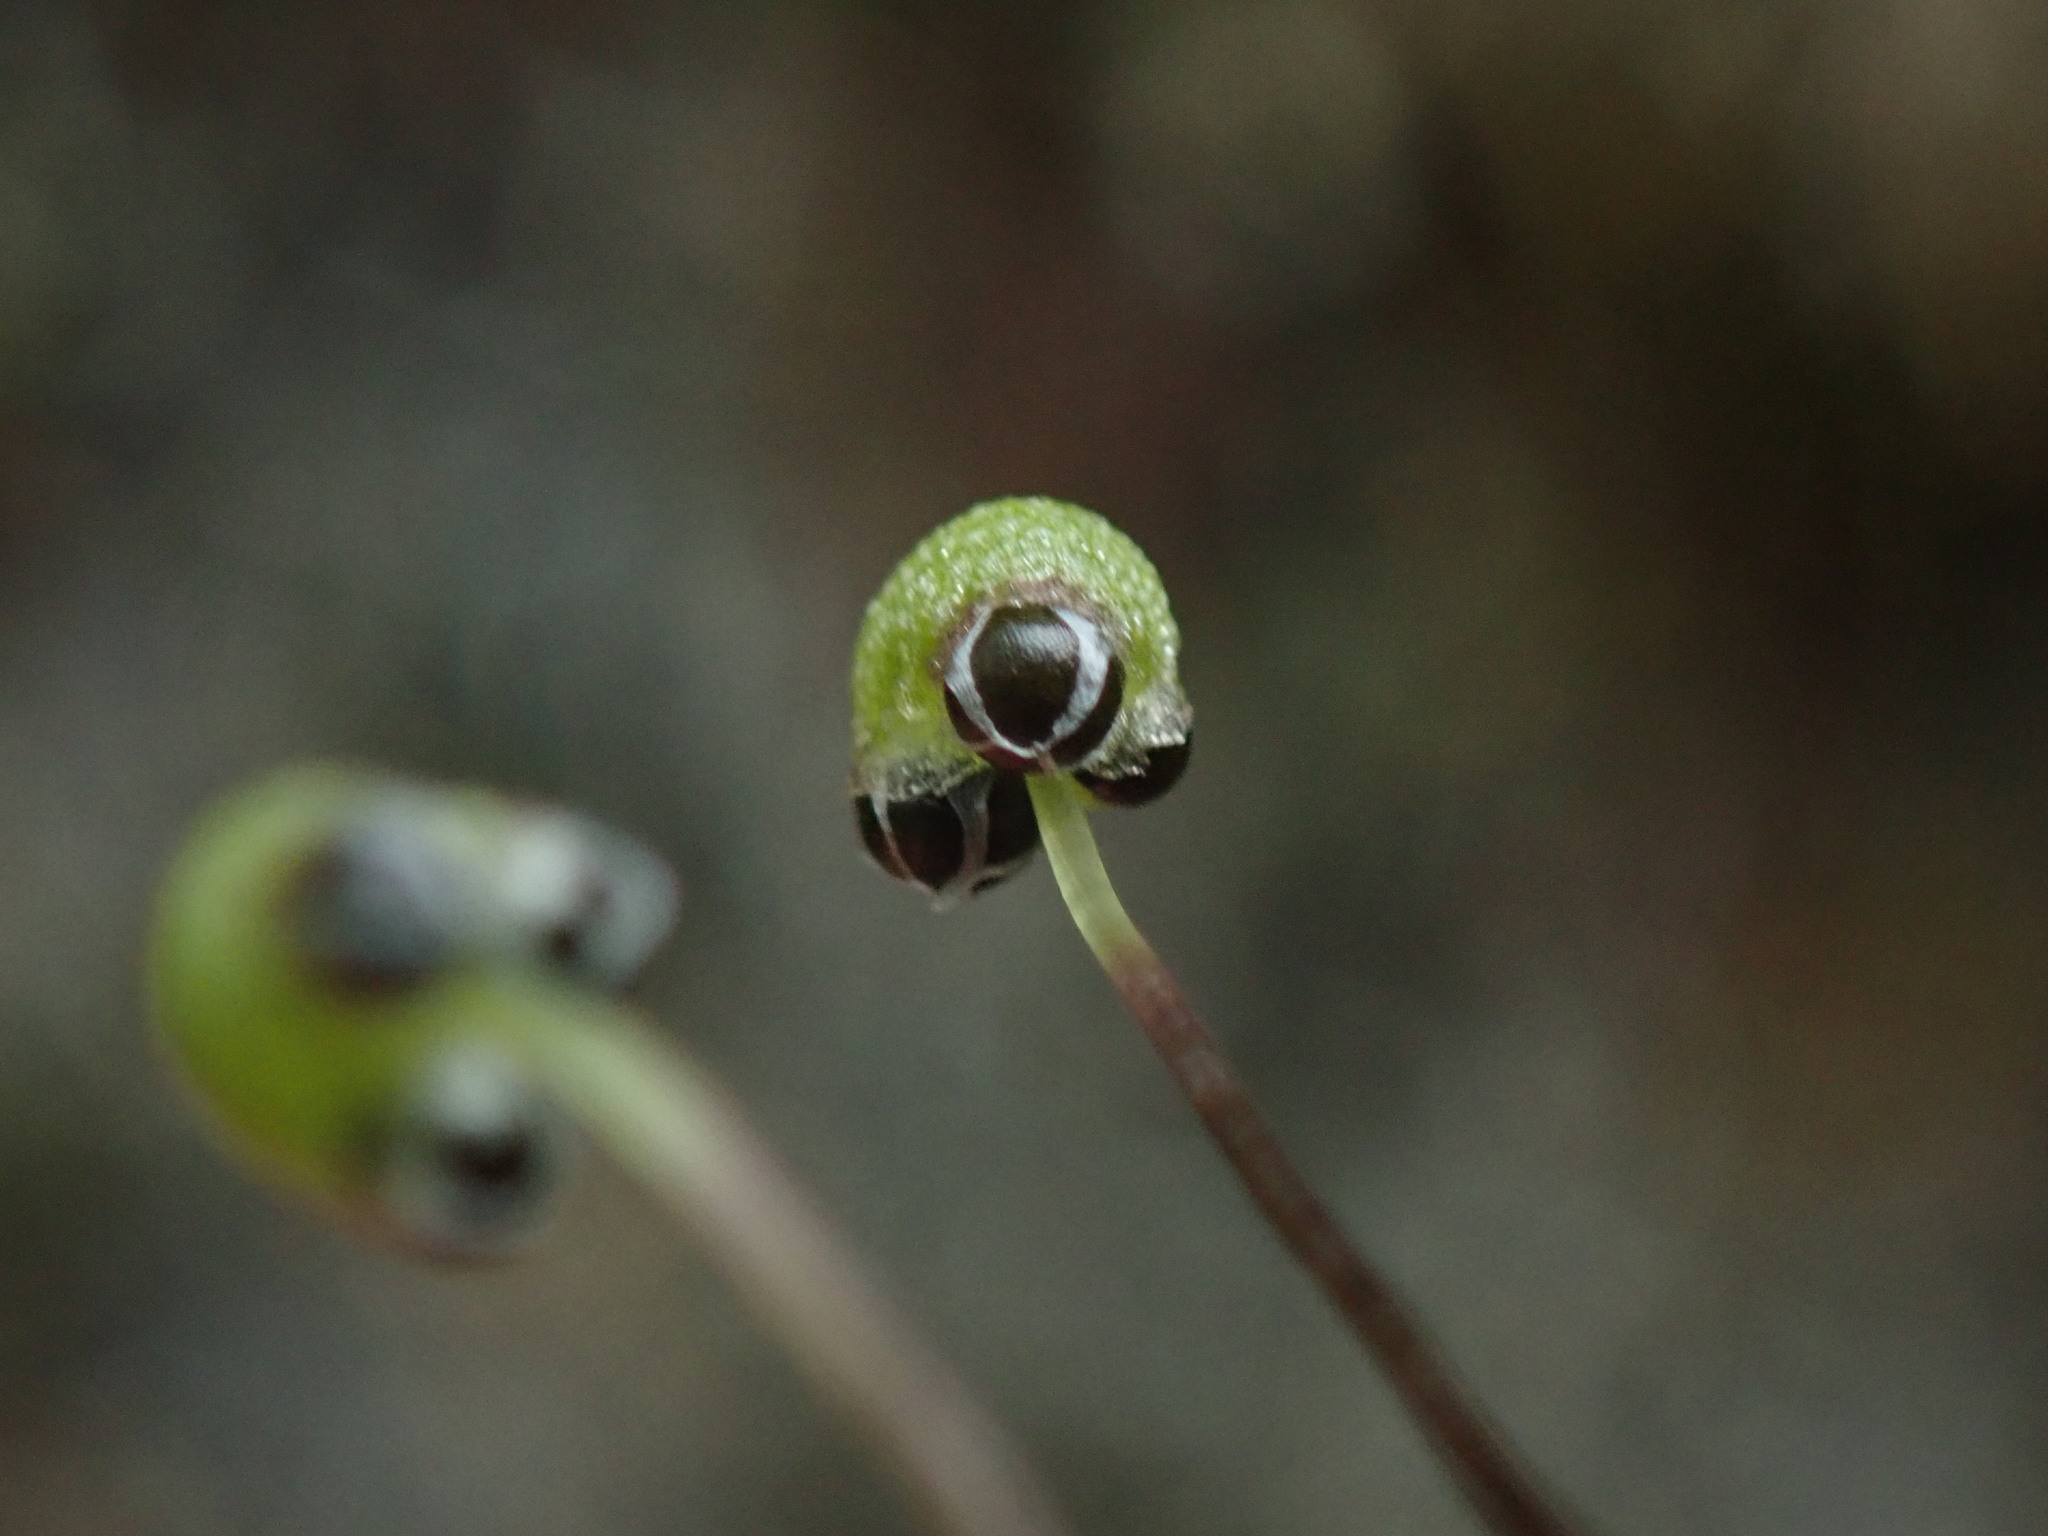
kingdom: Plantae
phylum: Marchantiophyta
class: Marchantiopsida
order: Marchantiales
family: Aytoniaceae
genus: Mannia
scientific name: Mannia gracilis
